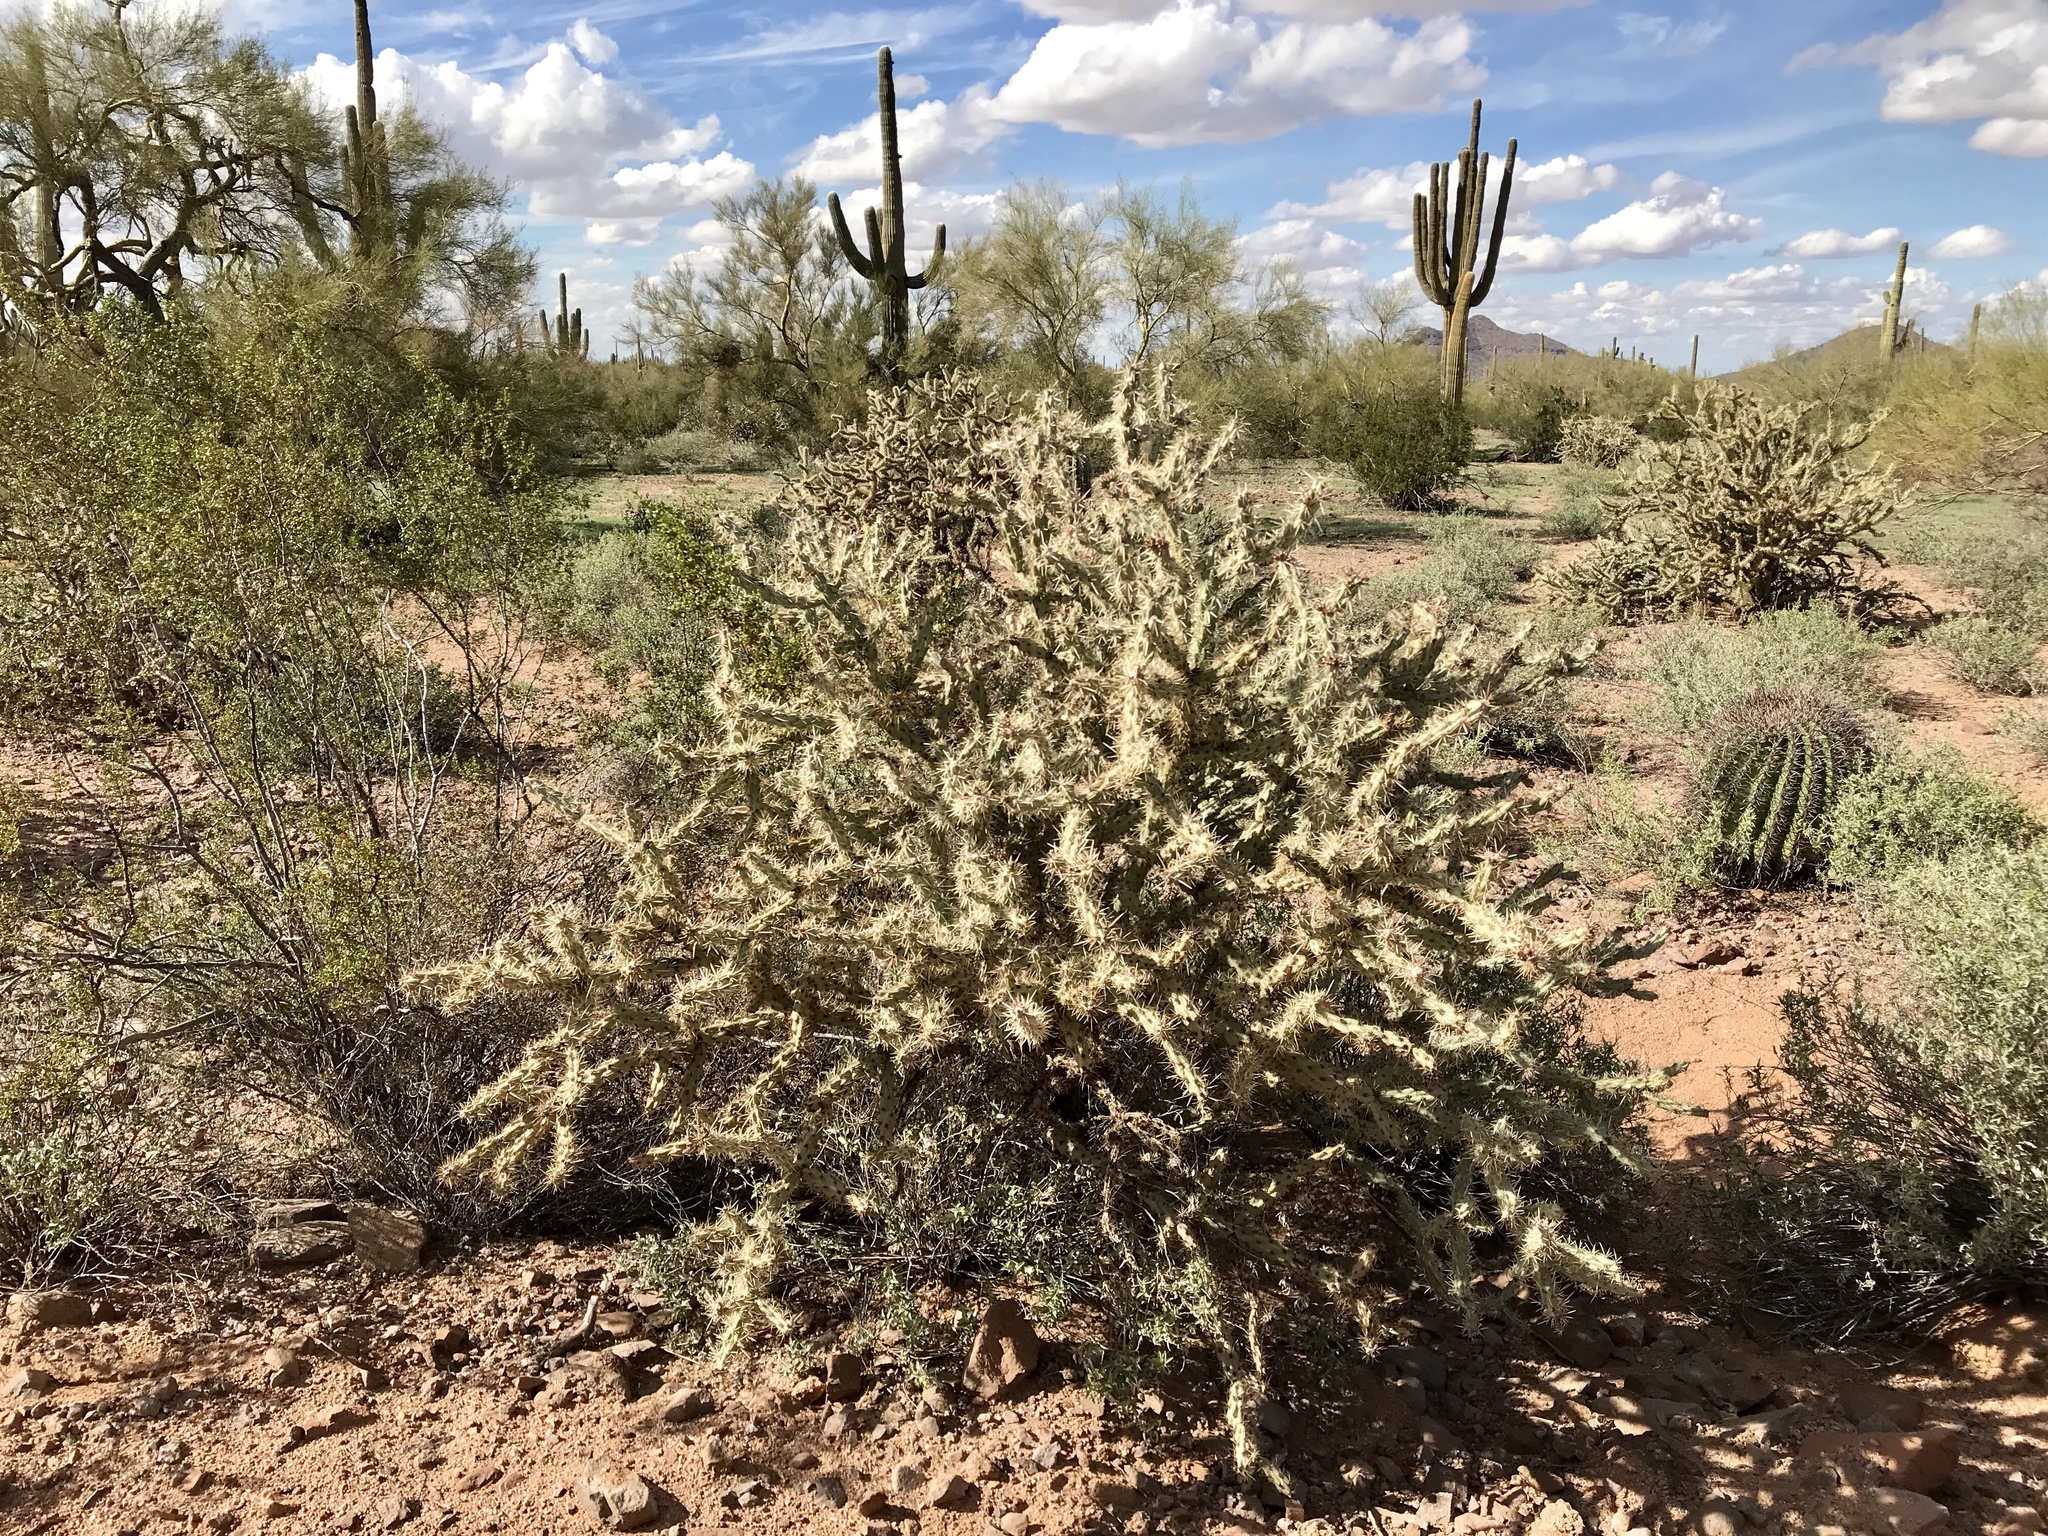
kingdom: Plantae
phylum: Tracheophyta
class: Magnoliopsida
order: Caryophyllales
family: Cactaceae
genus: Cylindropuntia
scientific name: Cylindropuntia acanthocarpa
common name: Buckhorn cholla
